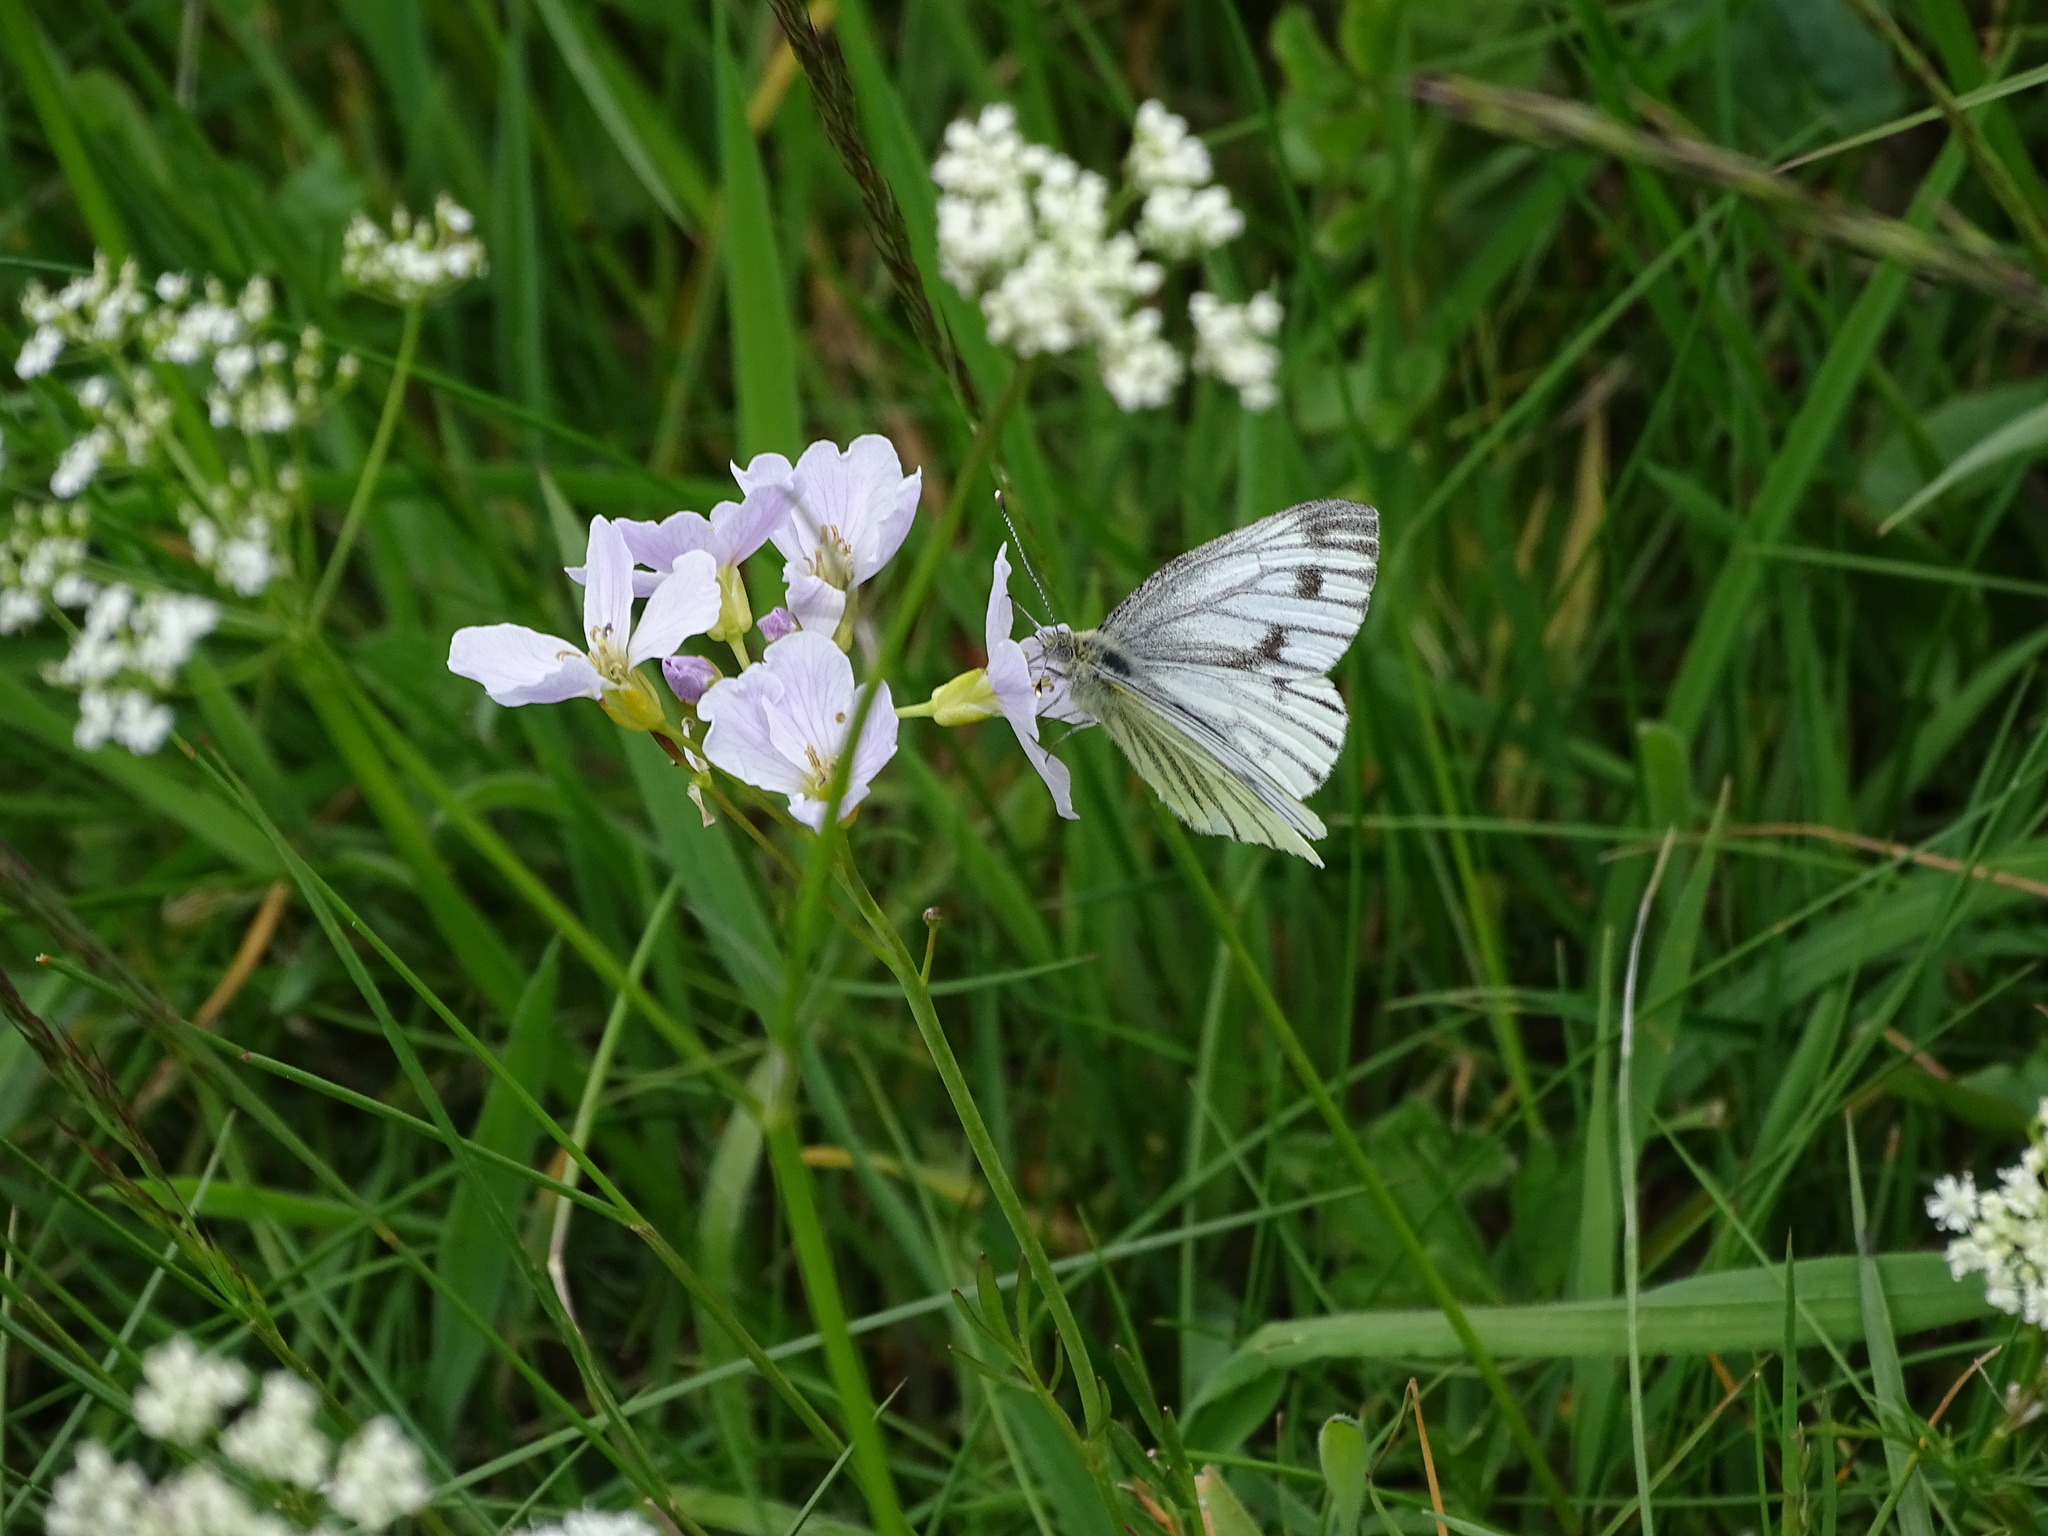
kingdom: Animalia
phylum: Arthropoda
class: Insecta
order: Lepidoptera
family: Pieridae
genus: Pieris
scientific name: Pieris napi
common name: Green-veined white
